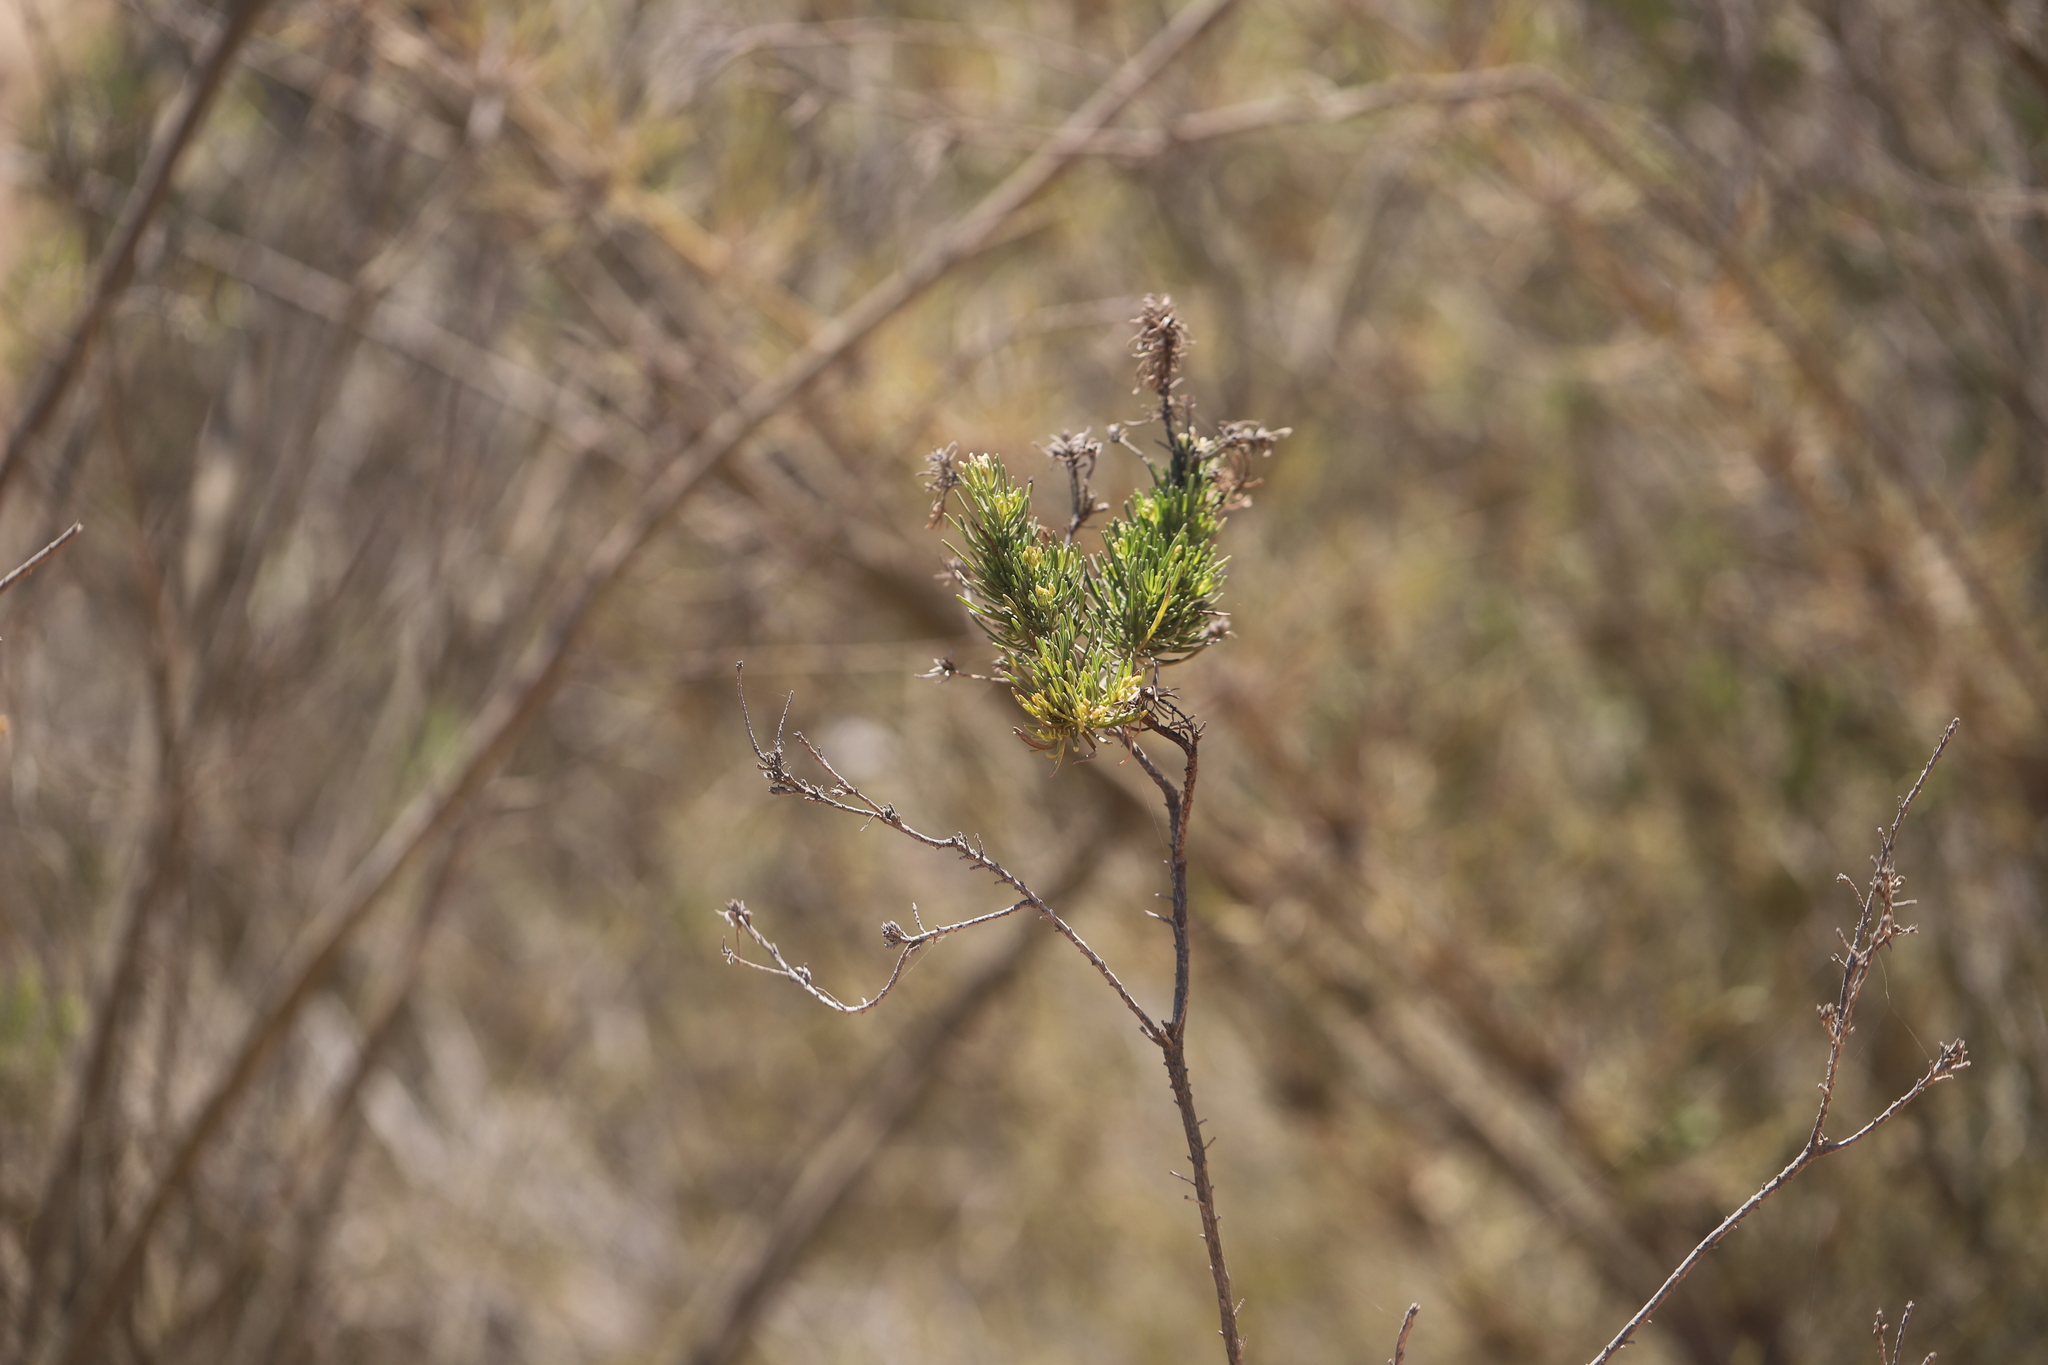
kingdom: Plantae
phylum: Tracheophyta
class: Magnoliopsida
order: Asterales
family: Asteraceae
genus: Baccharis
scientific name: Baccharis linearis
